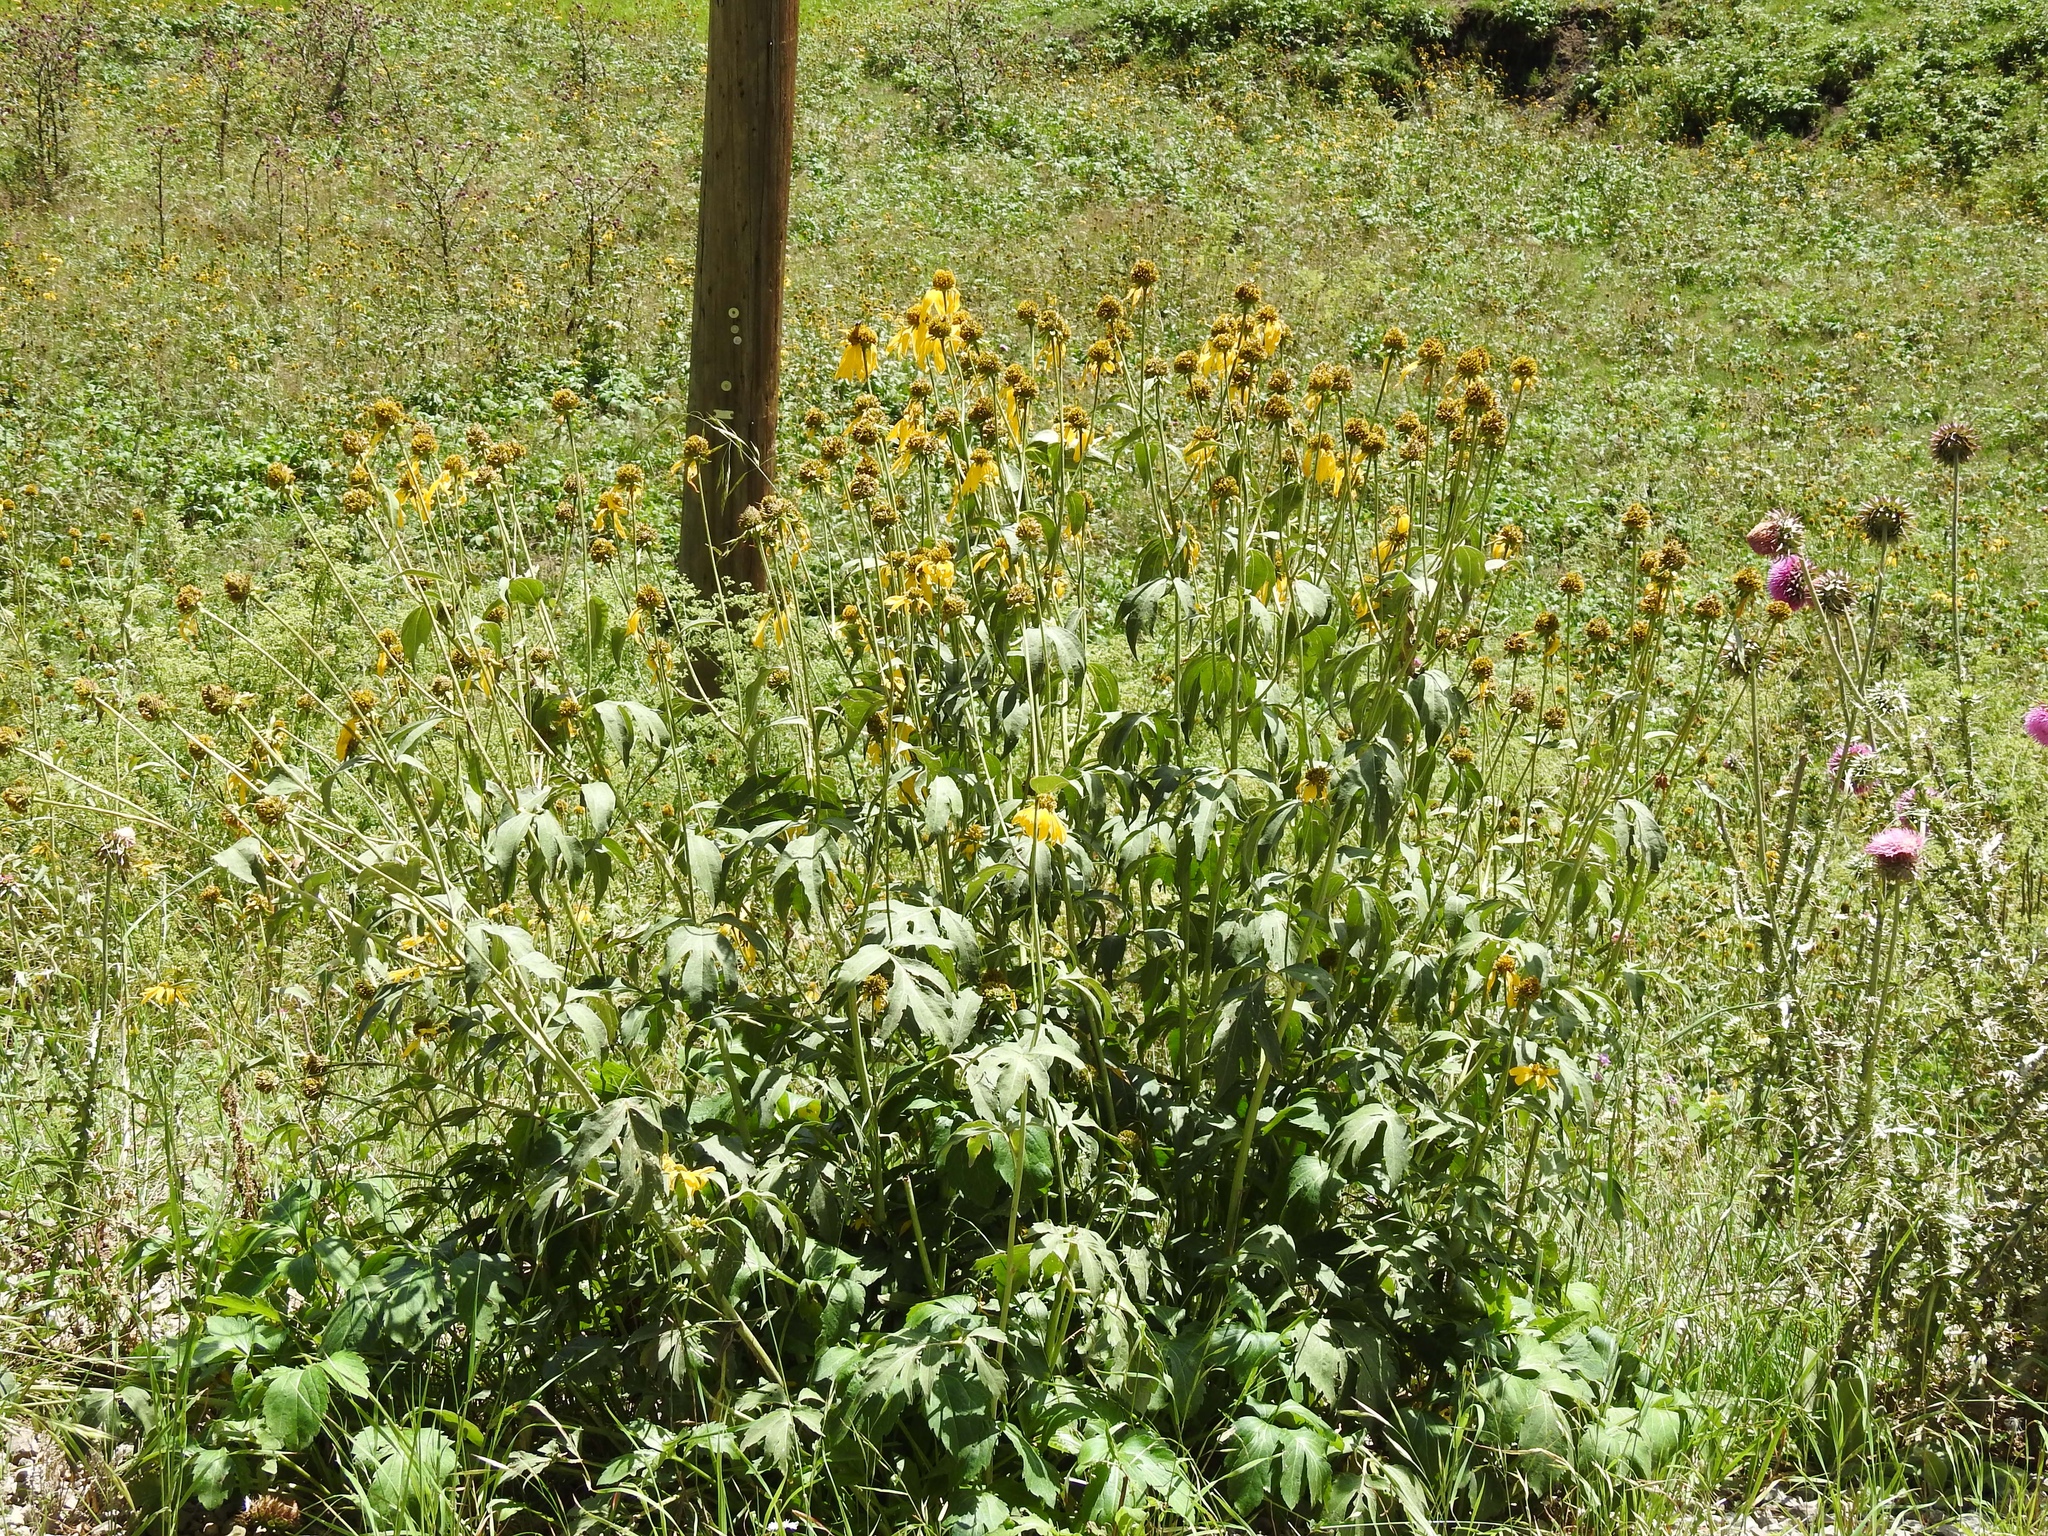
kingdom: Plantae
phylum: Tracheophyta
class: Magnoliopsida
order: Asterales
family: Asteraceae
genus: Rudbeckia
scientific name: Rudbeckia laciniata
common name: Coneflower
